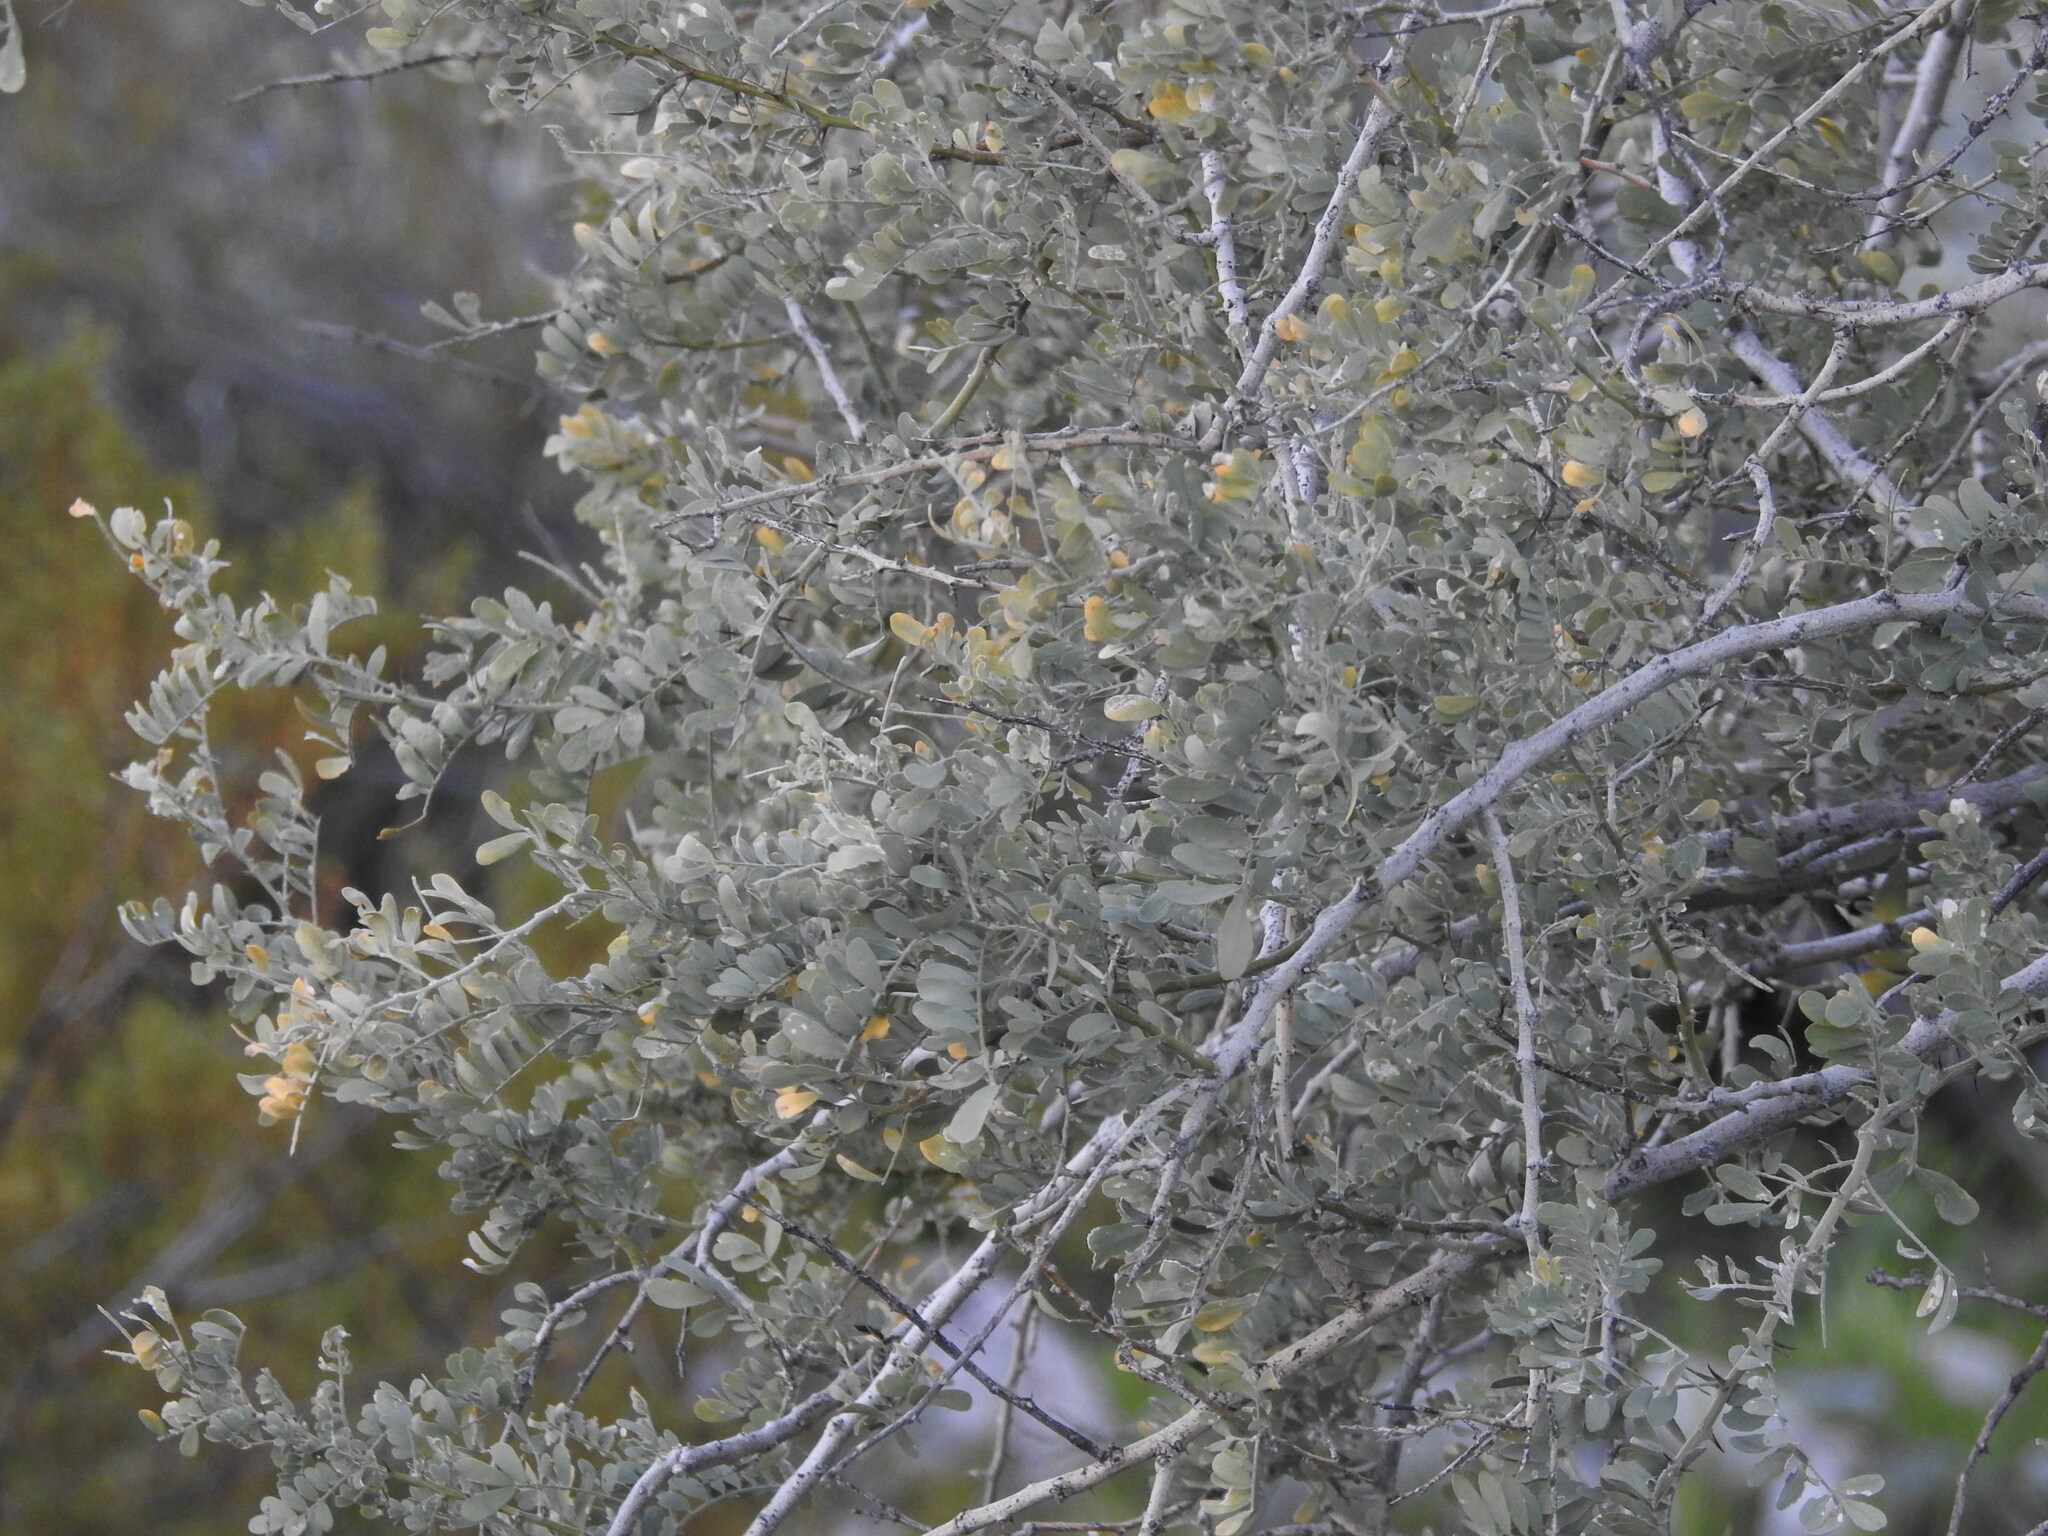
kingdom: Plantae
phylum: Tracheophyta
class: Magnoliopsida
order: Fabales
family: Fabaceae
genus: Olneya
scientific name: Olneya tesota
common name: Desert ironwood
